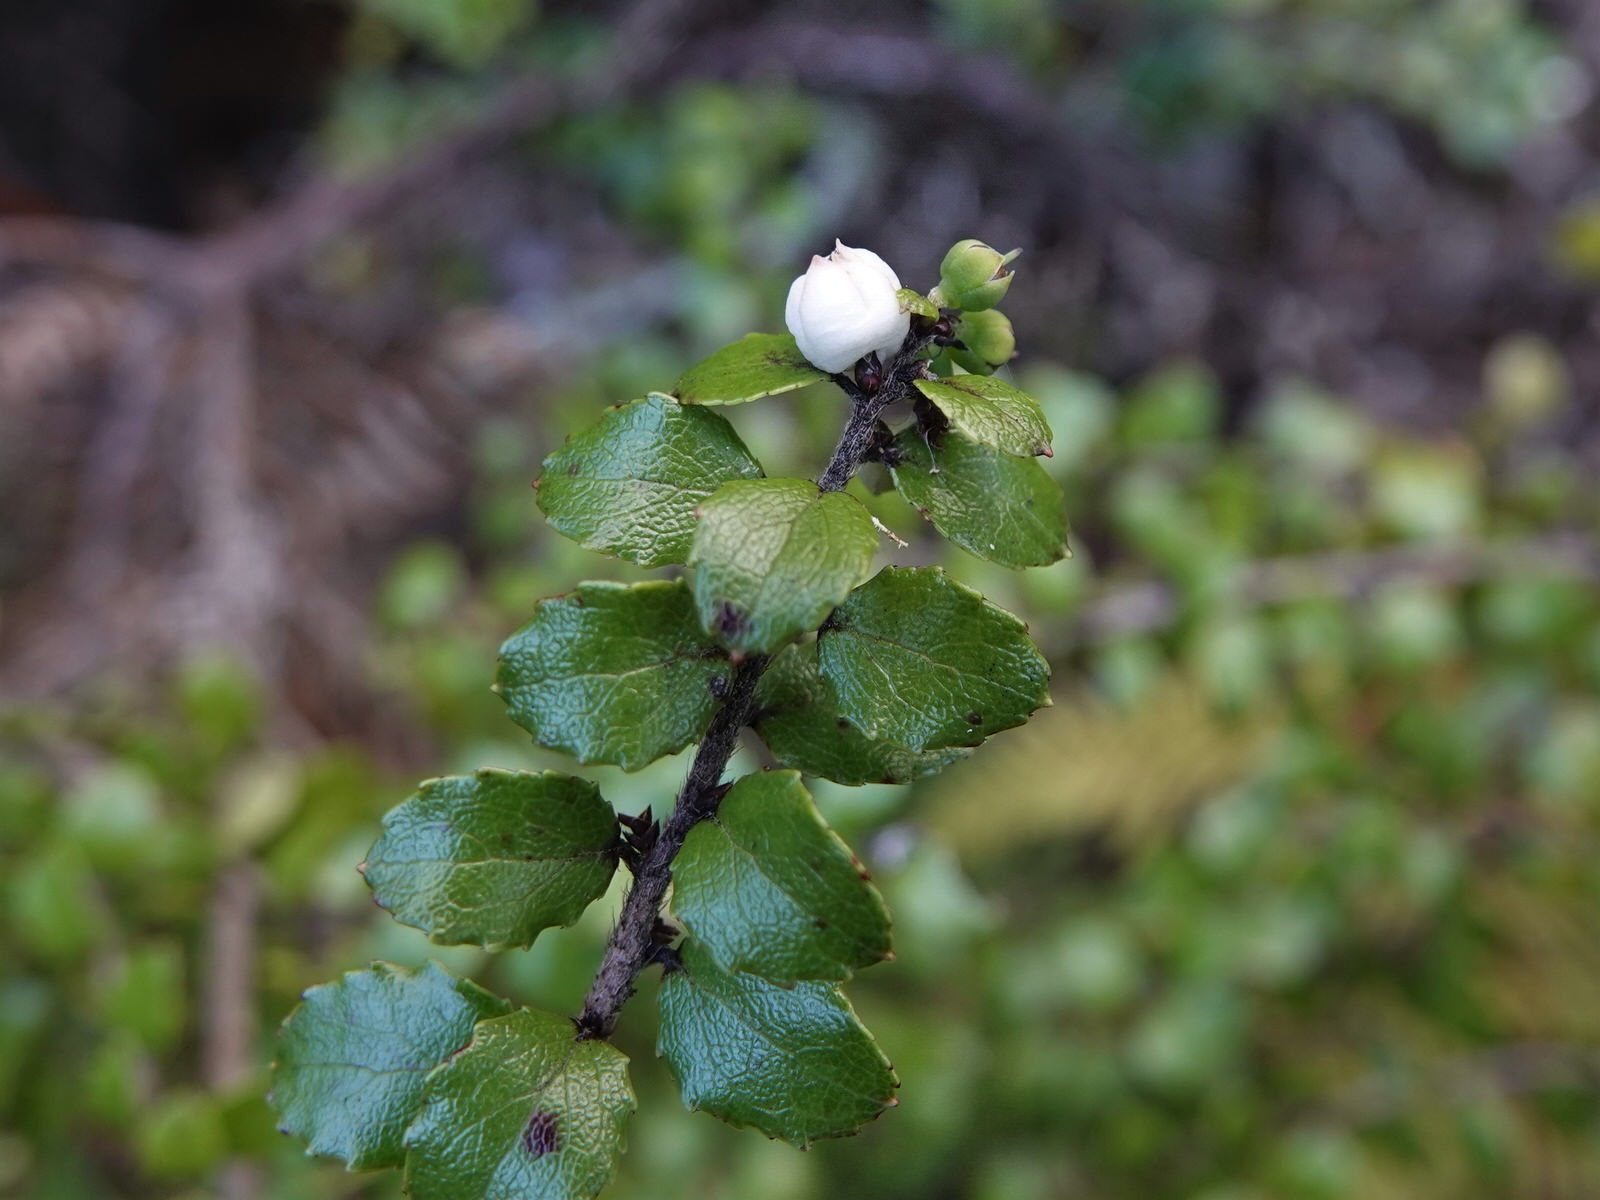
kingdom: Plantae
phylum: Tracheophyta
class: Magnoliopsida
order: Ericales
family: Ericaceae
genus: Gaultheria
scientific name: Gaultheria antipoda
